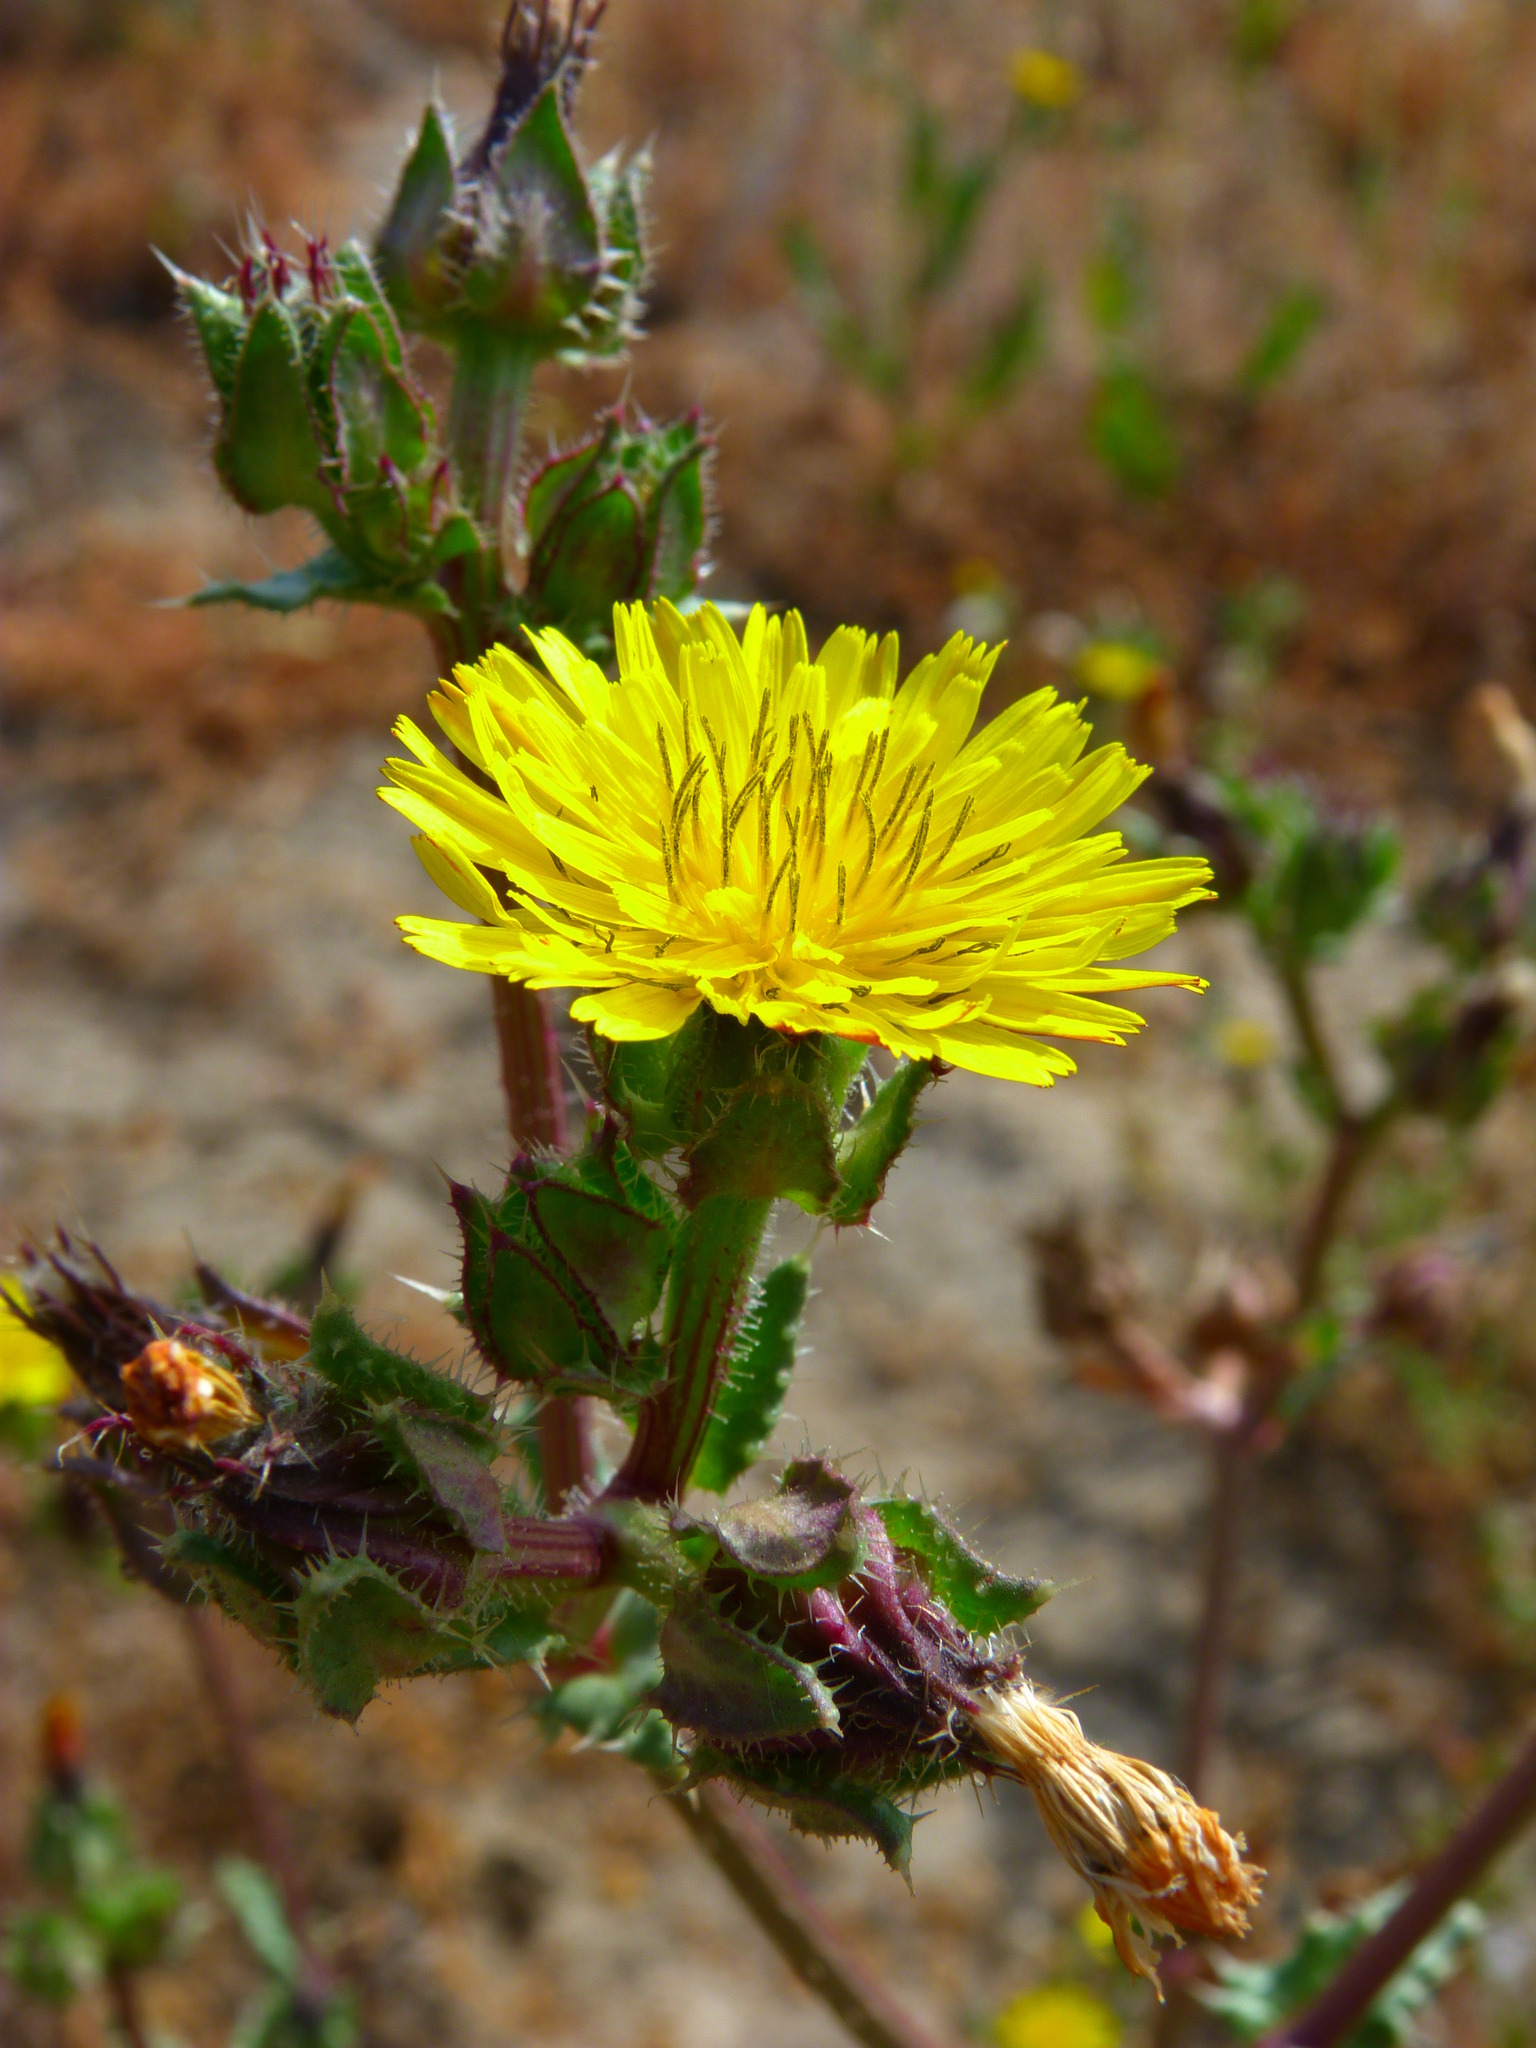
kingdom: Plantae
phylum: Tracheophyta
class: Magnoliopsida
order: Asterales
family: Asteraceae
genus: Helminthotheca
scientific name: Helminthotheca echioides
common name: Ox-tongue
